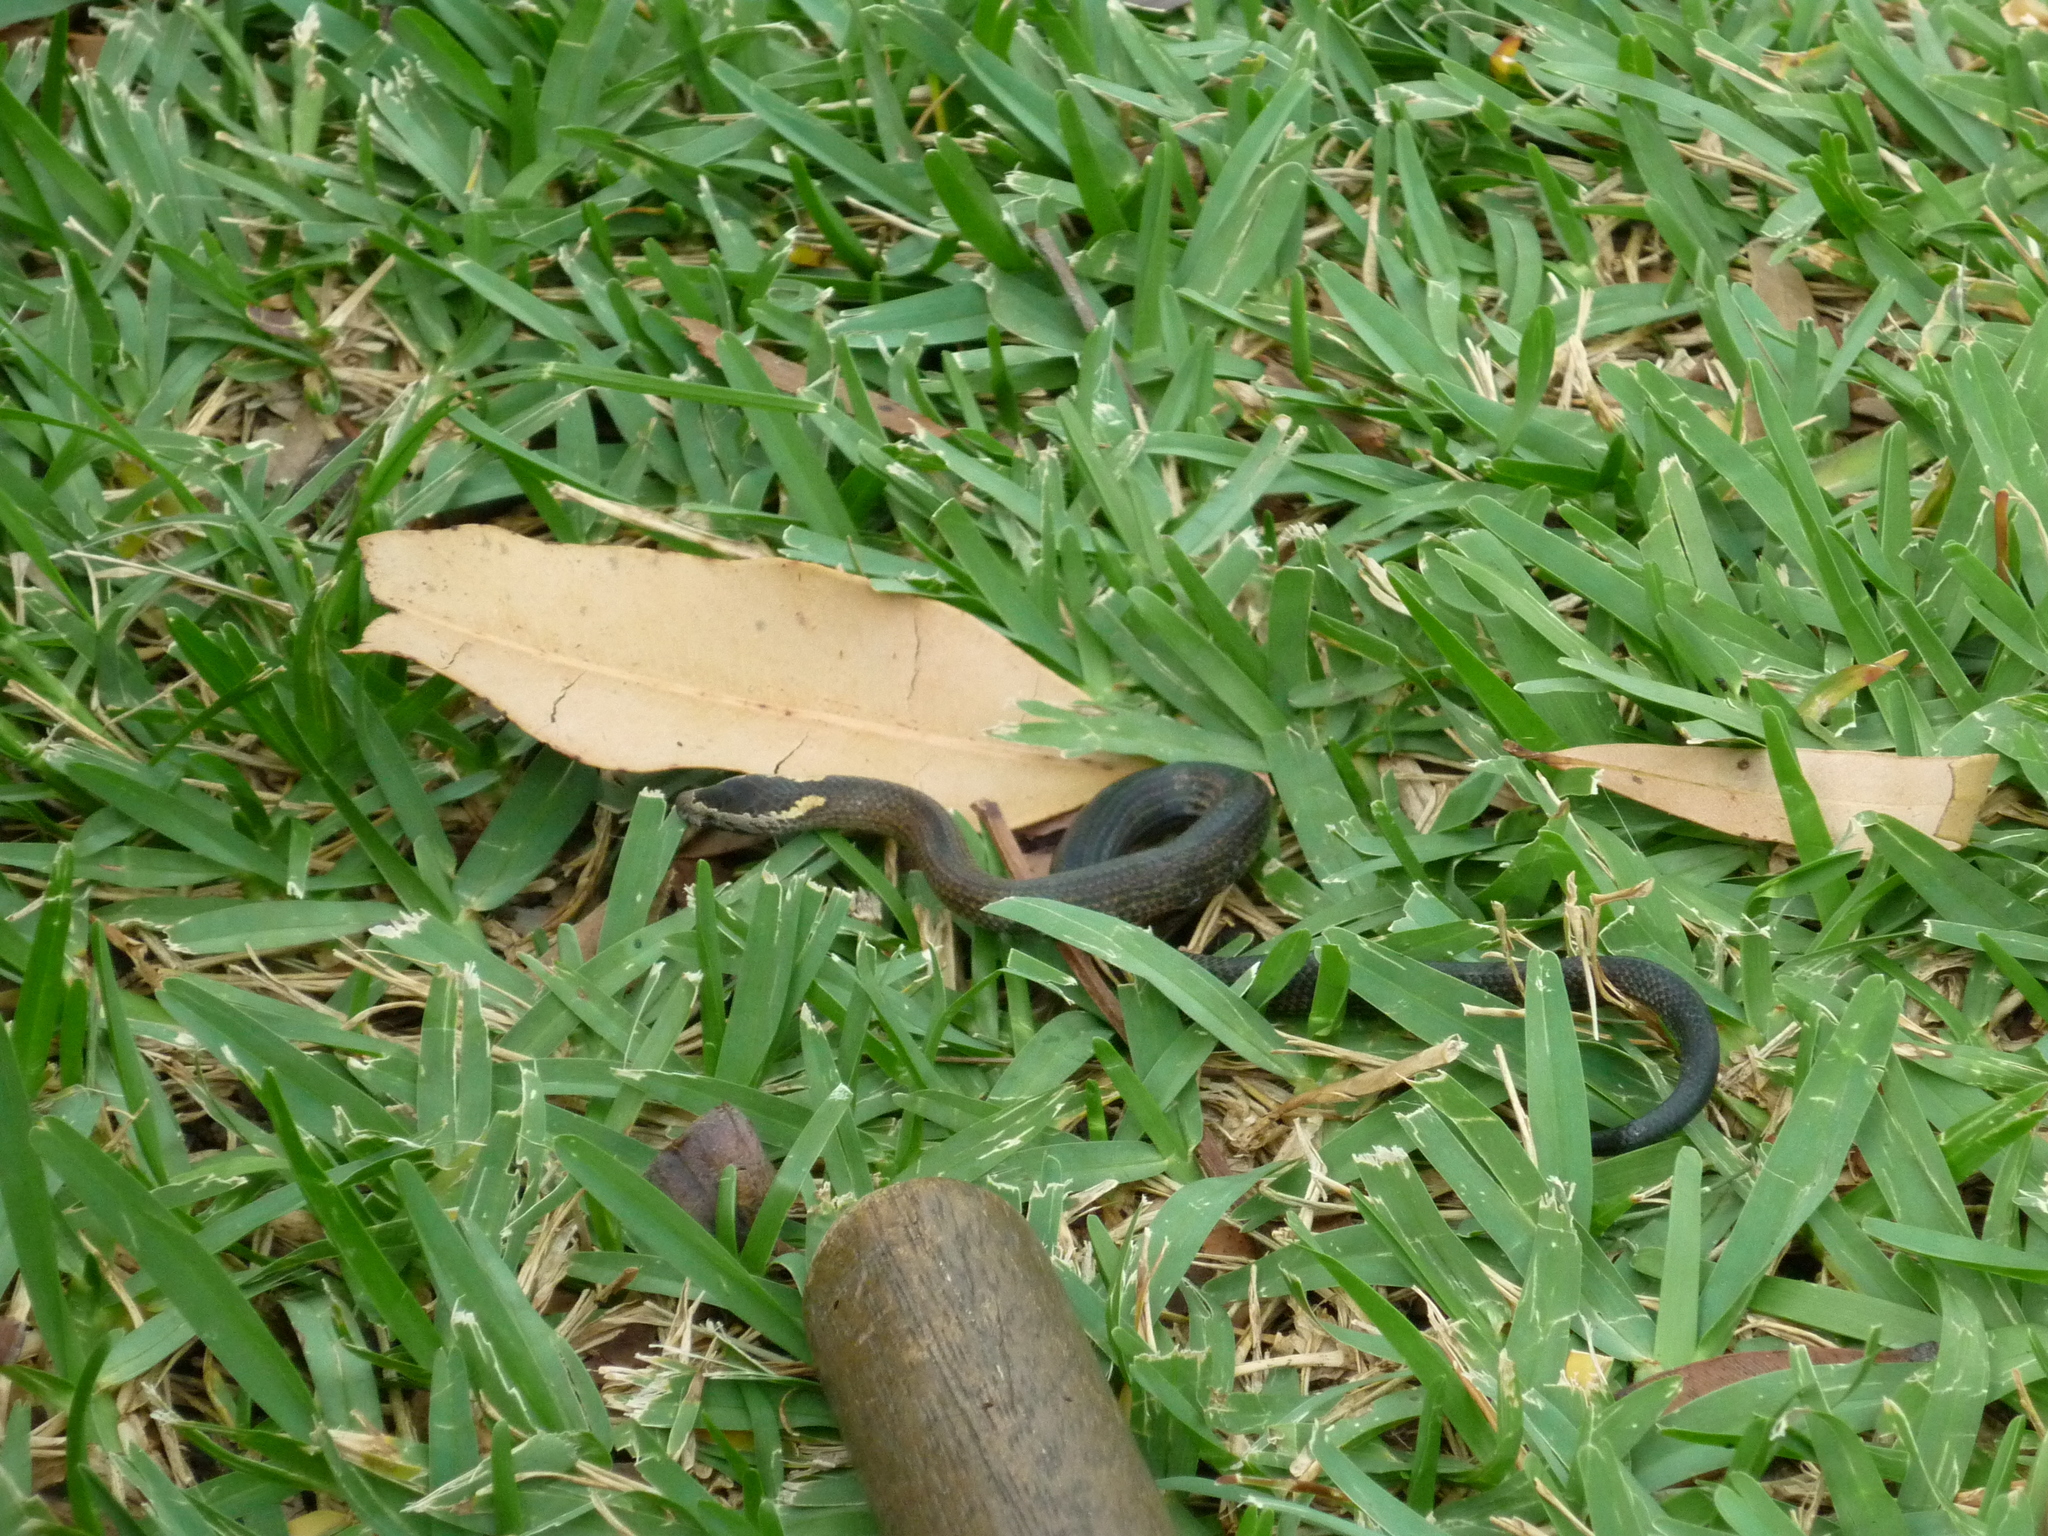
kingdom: Animalia
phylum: Chordata
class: Squamata
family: Elapidae
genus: Cacophis
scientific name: Cacophis squamulosus
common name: Golden crowned snake
